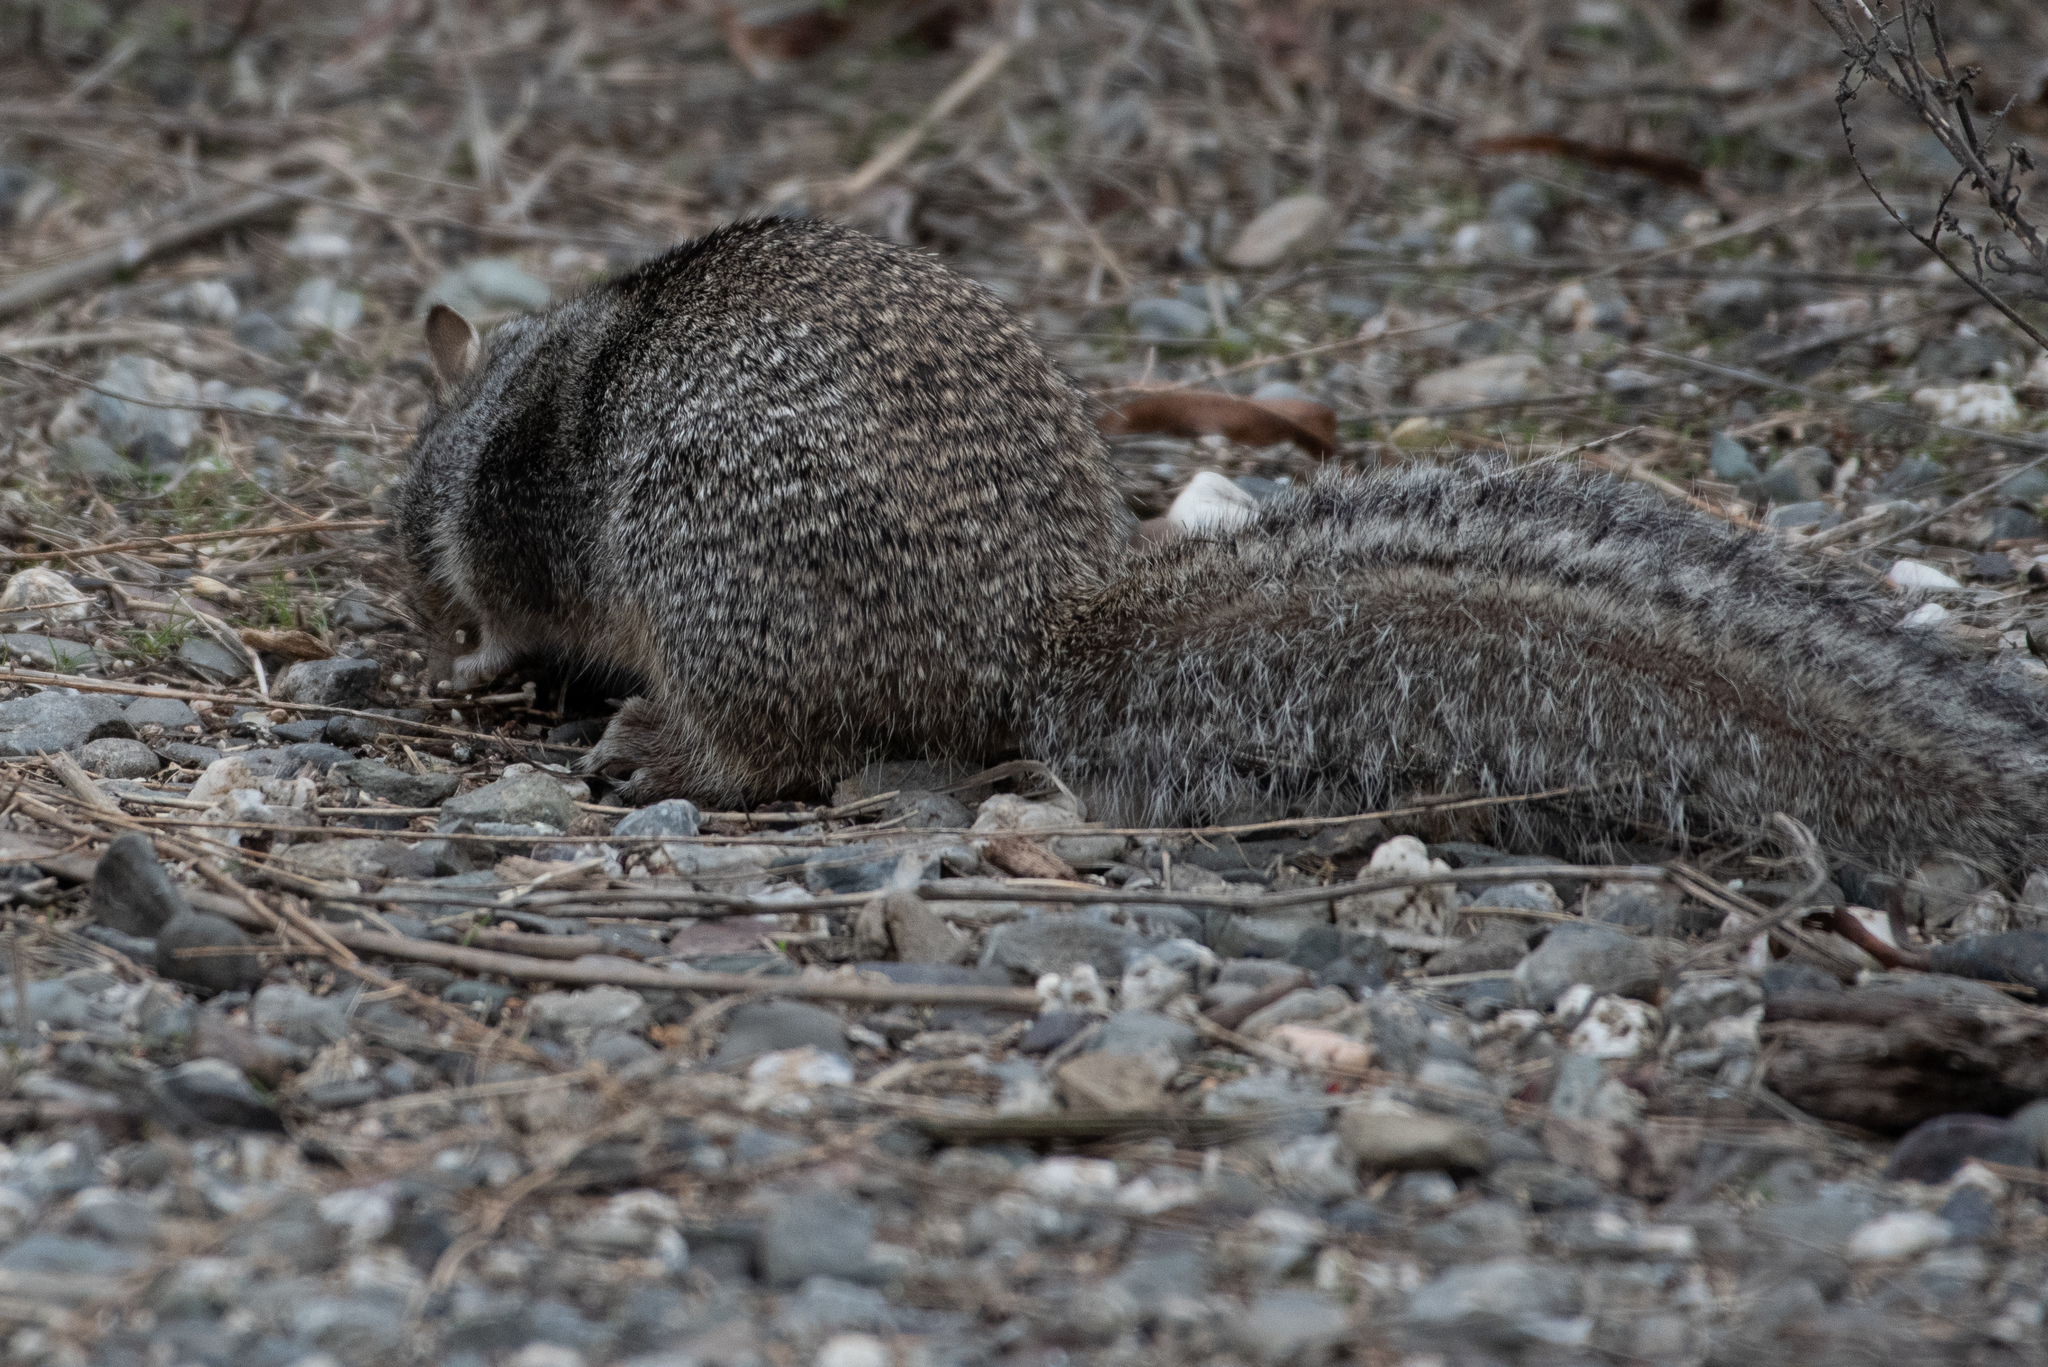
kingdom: Animalia
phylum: Chordata
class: Mammalia
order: Rodentia
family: Sciuridae
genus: Otospermophilus
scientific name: Otospermophilus beecheyi
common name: California ground squirrel
